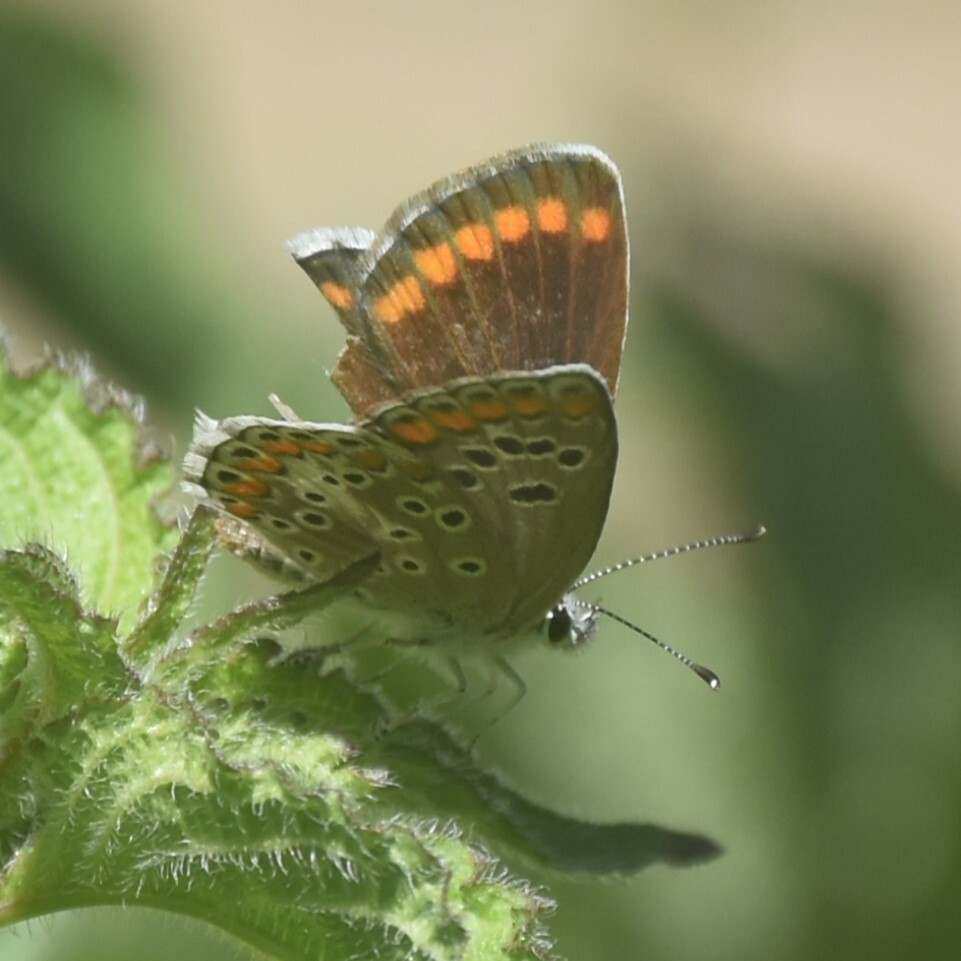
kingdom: Animalia
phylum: Arthropoda
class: Insecta
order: Lepidoptera
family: Lycaenidae
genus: Aricia
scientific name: Aricia agestis
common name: Brown argus
